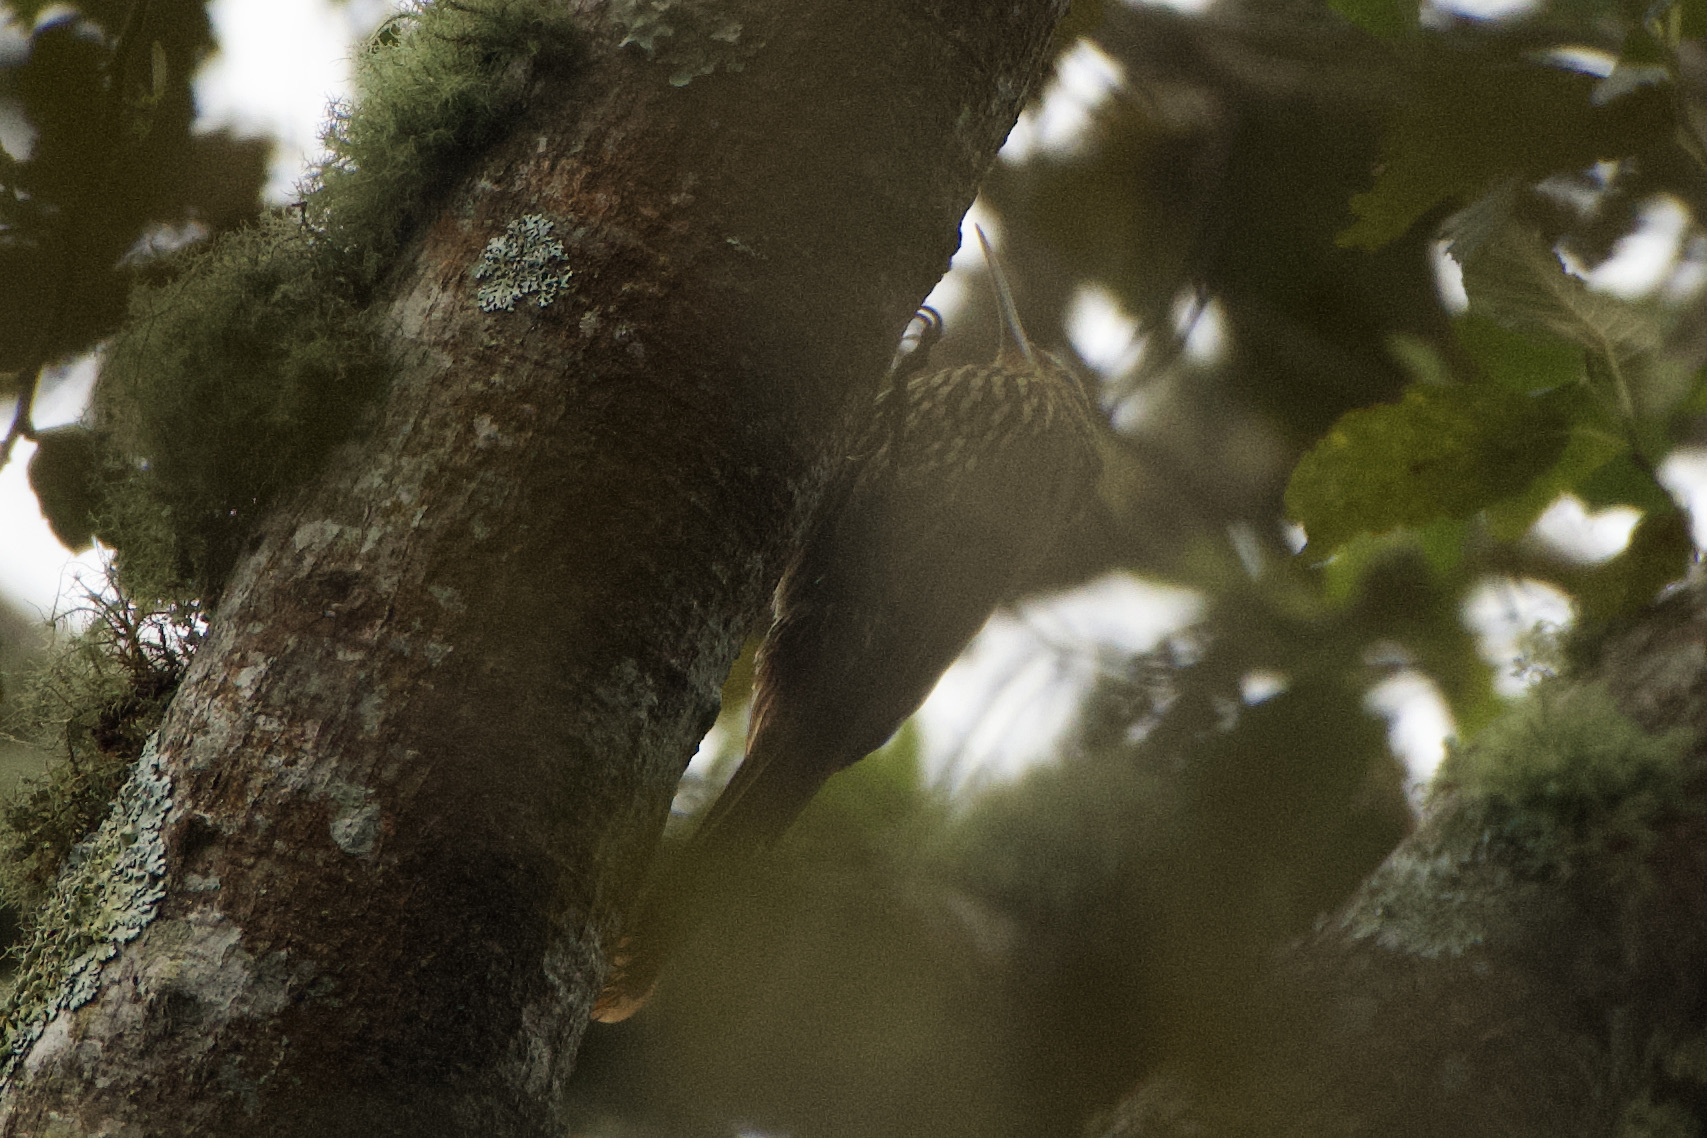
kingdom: Animalia
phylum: Chordata
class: Aves
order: Passeriformes
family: Furnariidae
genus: Lepidocolaptes
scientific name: Lepidocolaptes affinis
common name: Spot-crowned woodcreeper
